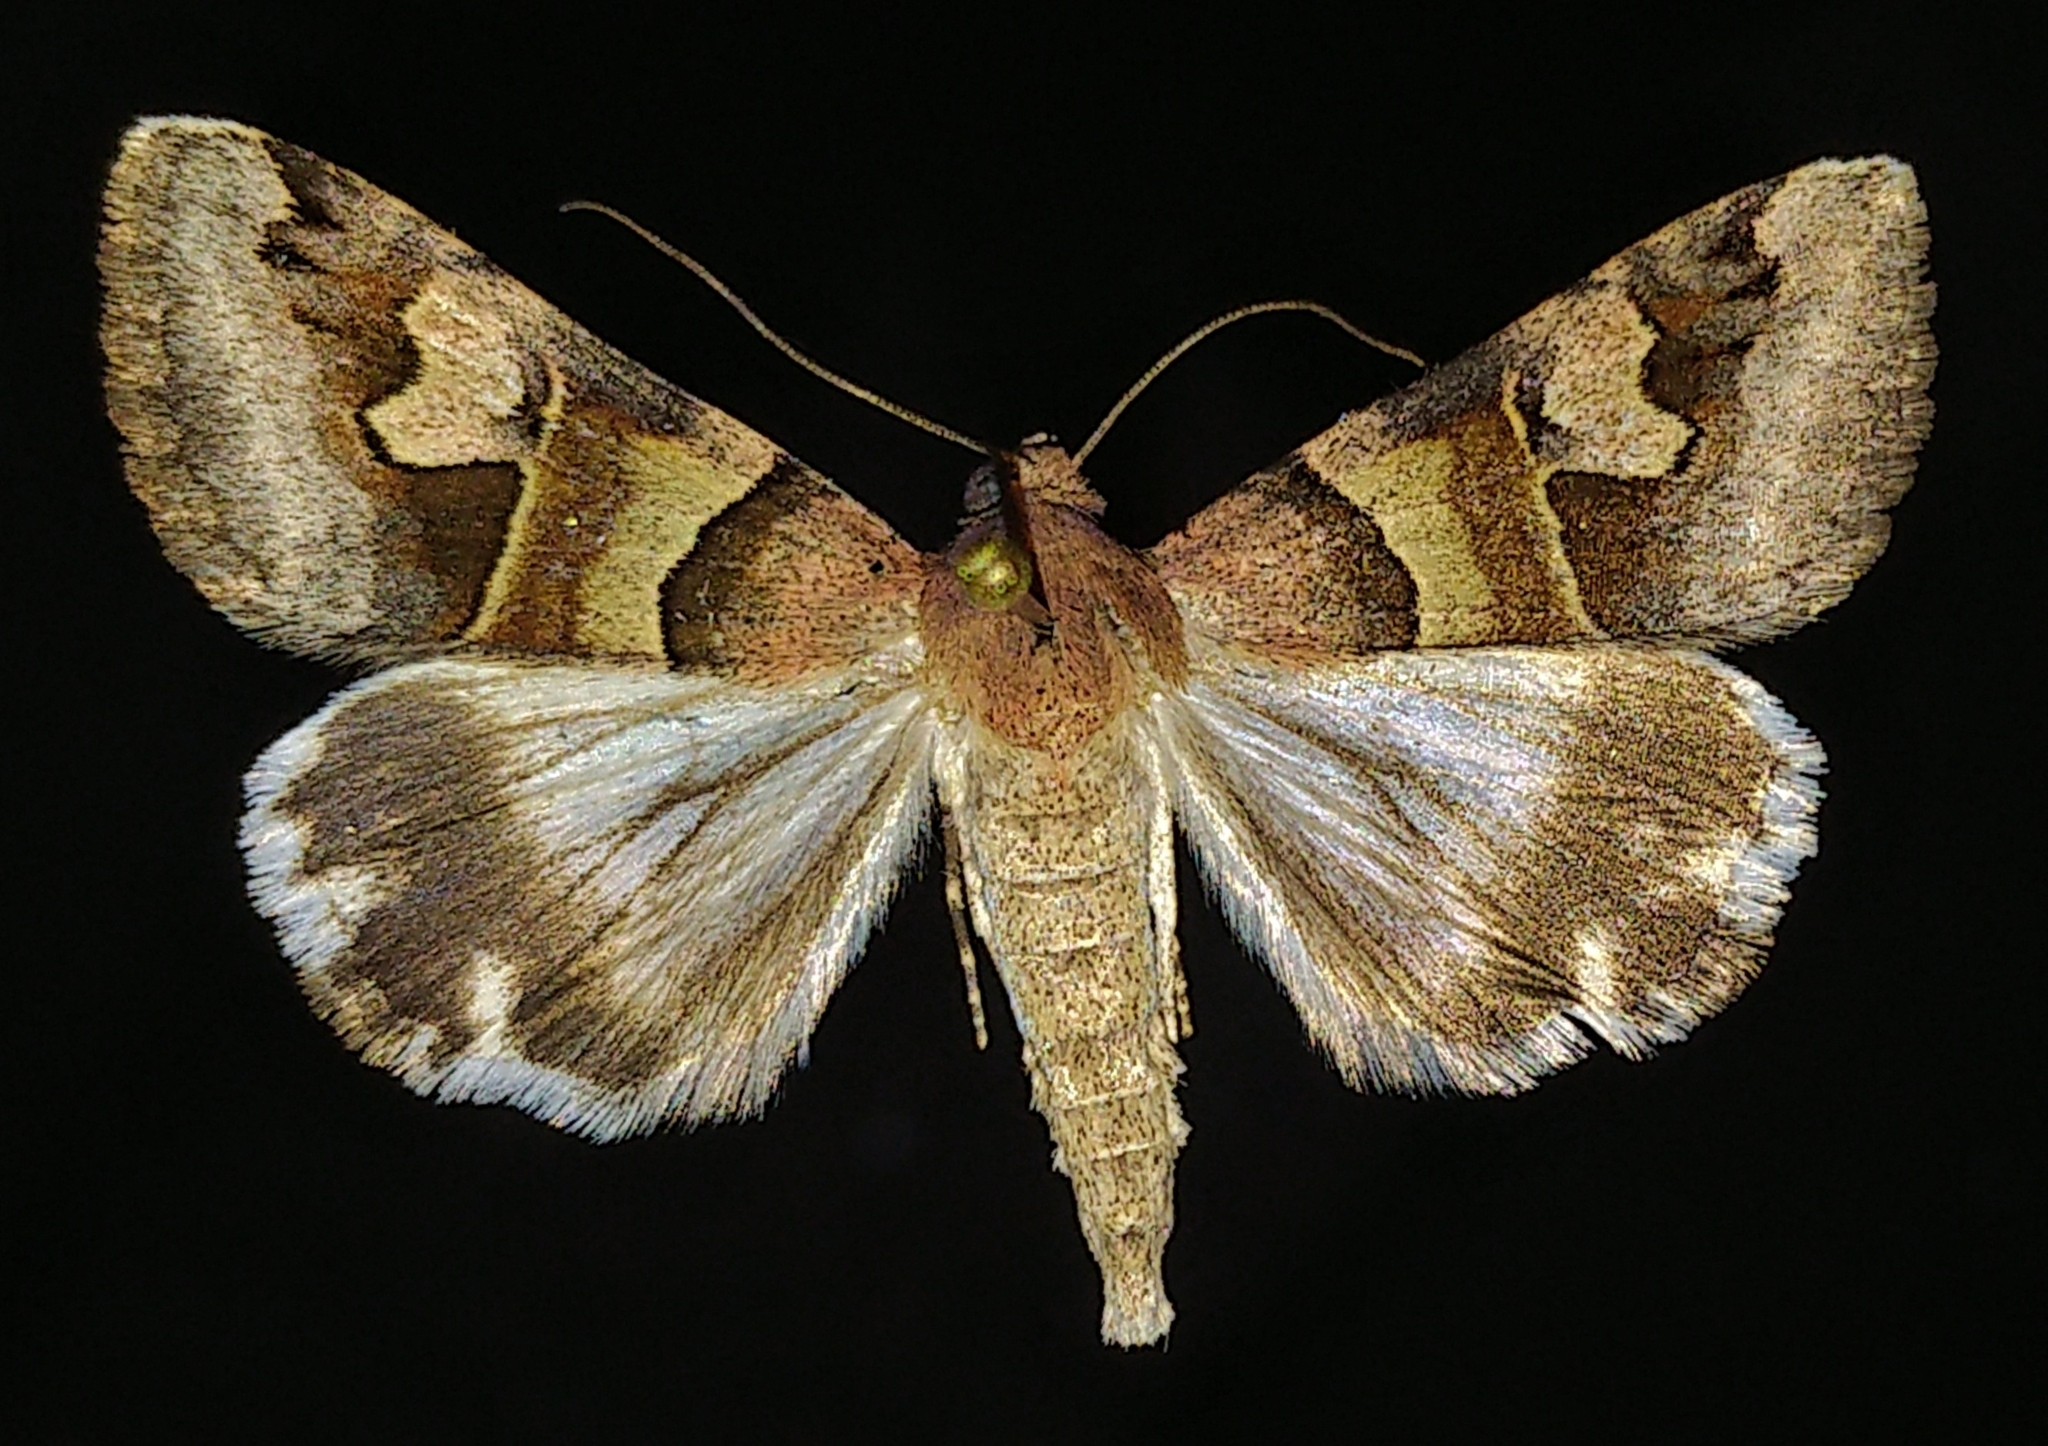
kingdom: Animalia
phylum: Arthropoda
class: Insecta
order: Lepidoptera
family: Erebidae
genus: Drasteria
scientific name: Drasteria pallescens
